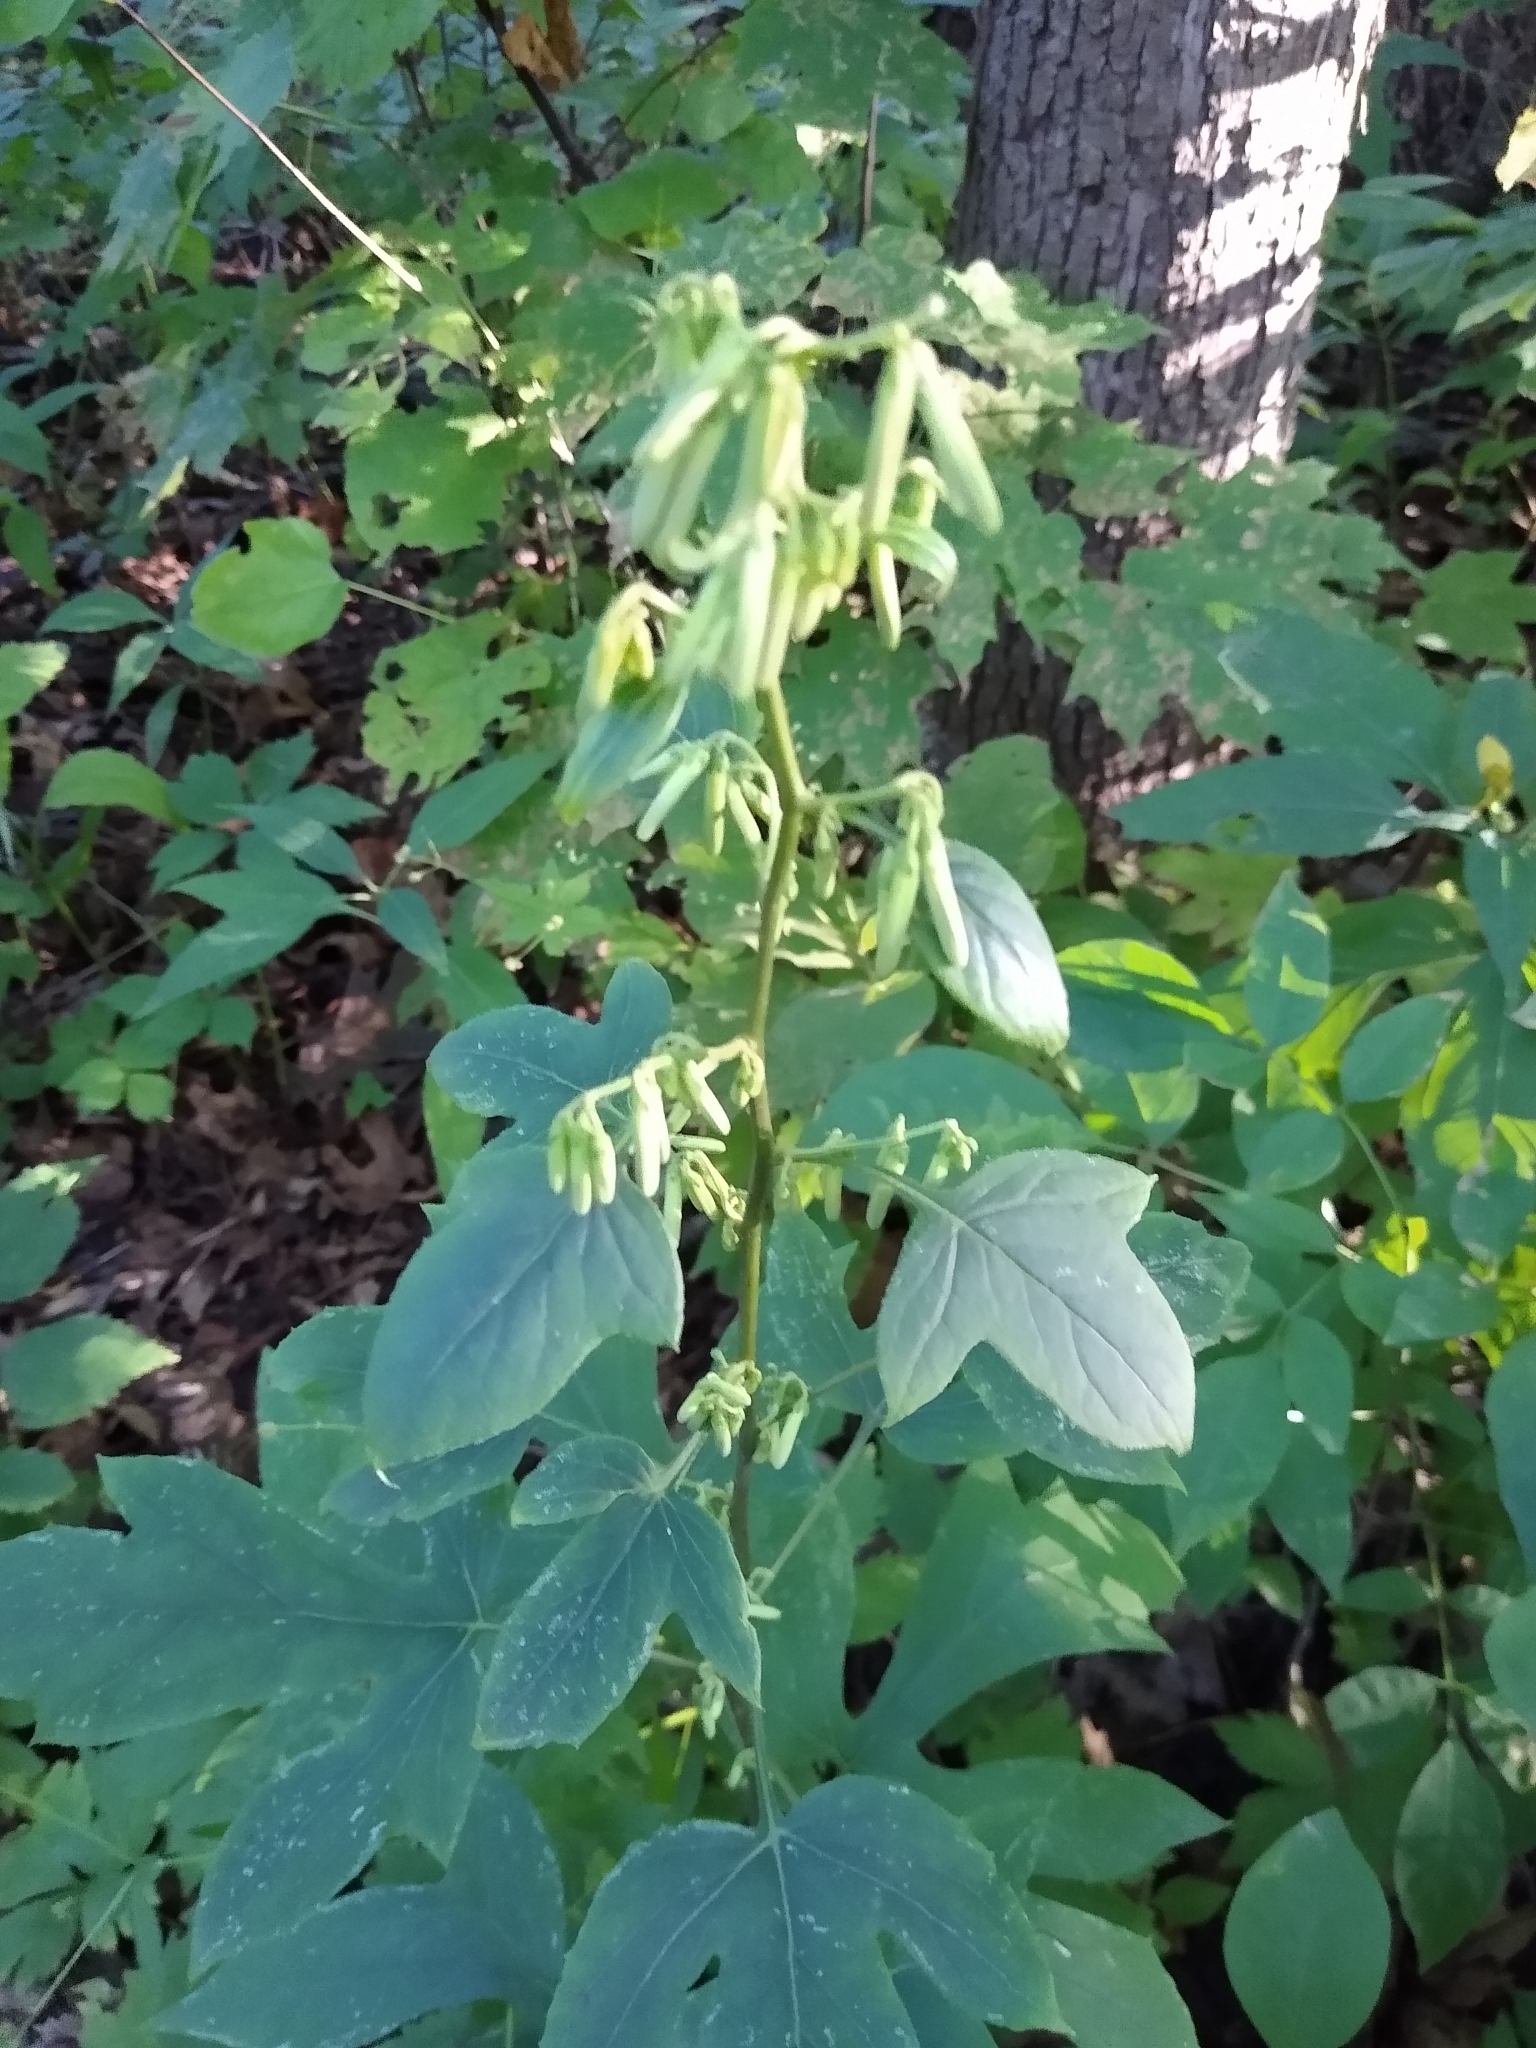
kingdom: Plantae
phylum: Tracheophyta
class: Magnoliopsida
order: Asterales
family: Asteraceae
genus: Nabalus
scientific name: Nabalus altissima
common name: Tall rattlesnakeroot
